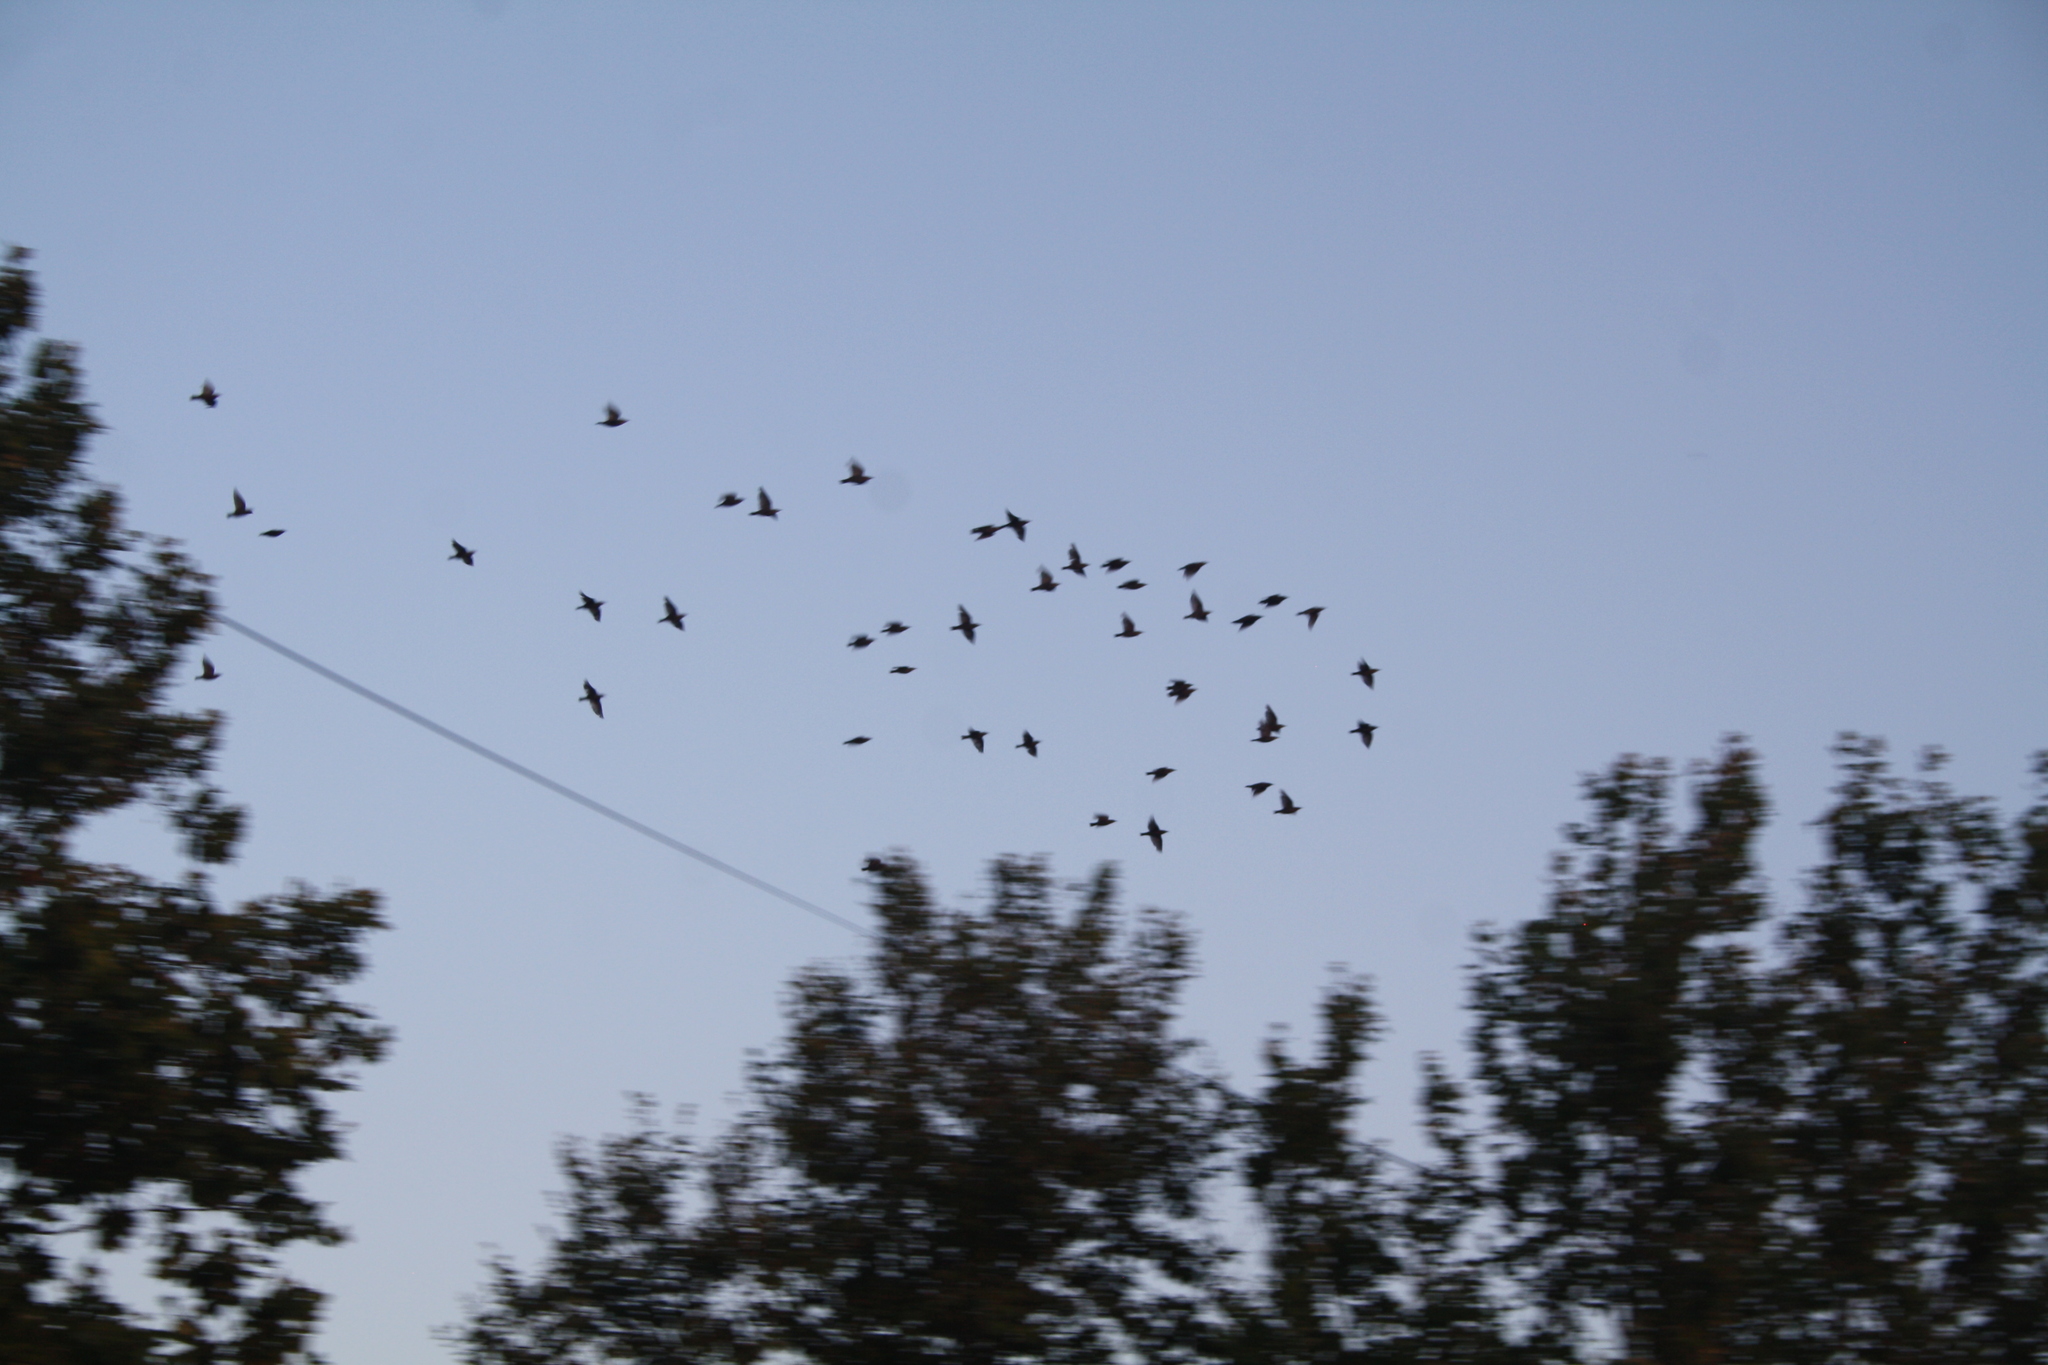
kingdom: Animalia
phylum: Chordata
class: Aves
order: Passeriformes
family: Sturnidae
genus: Sturnus
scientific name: Sturnus vulgaris
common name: Common starling
